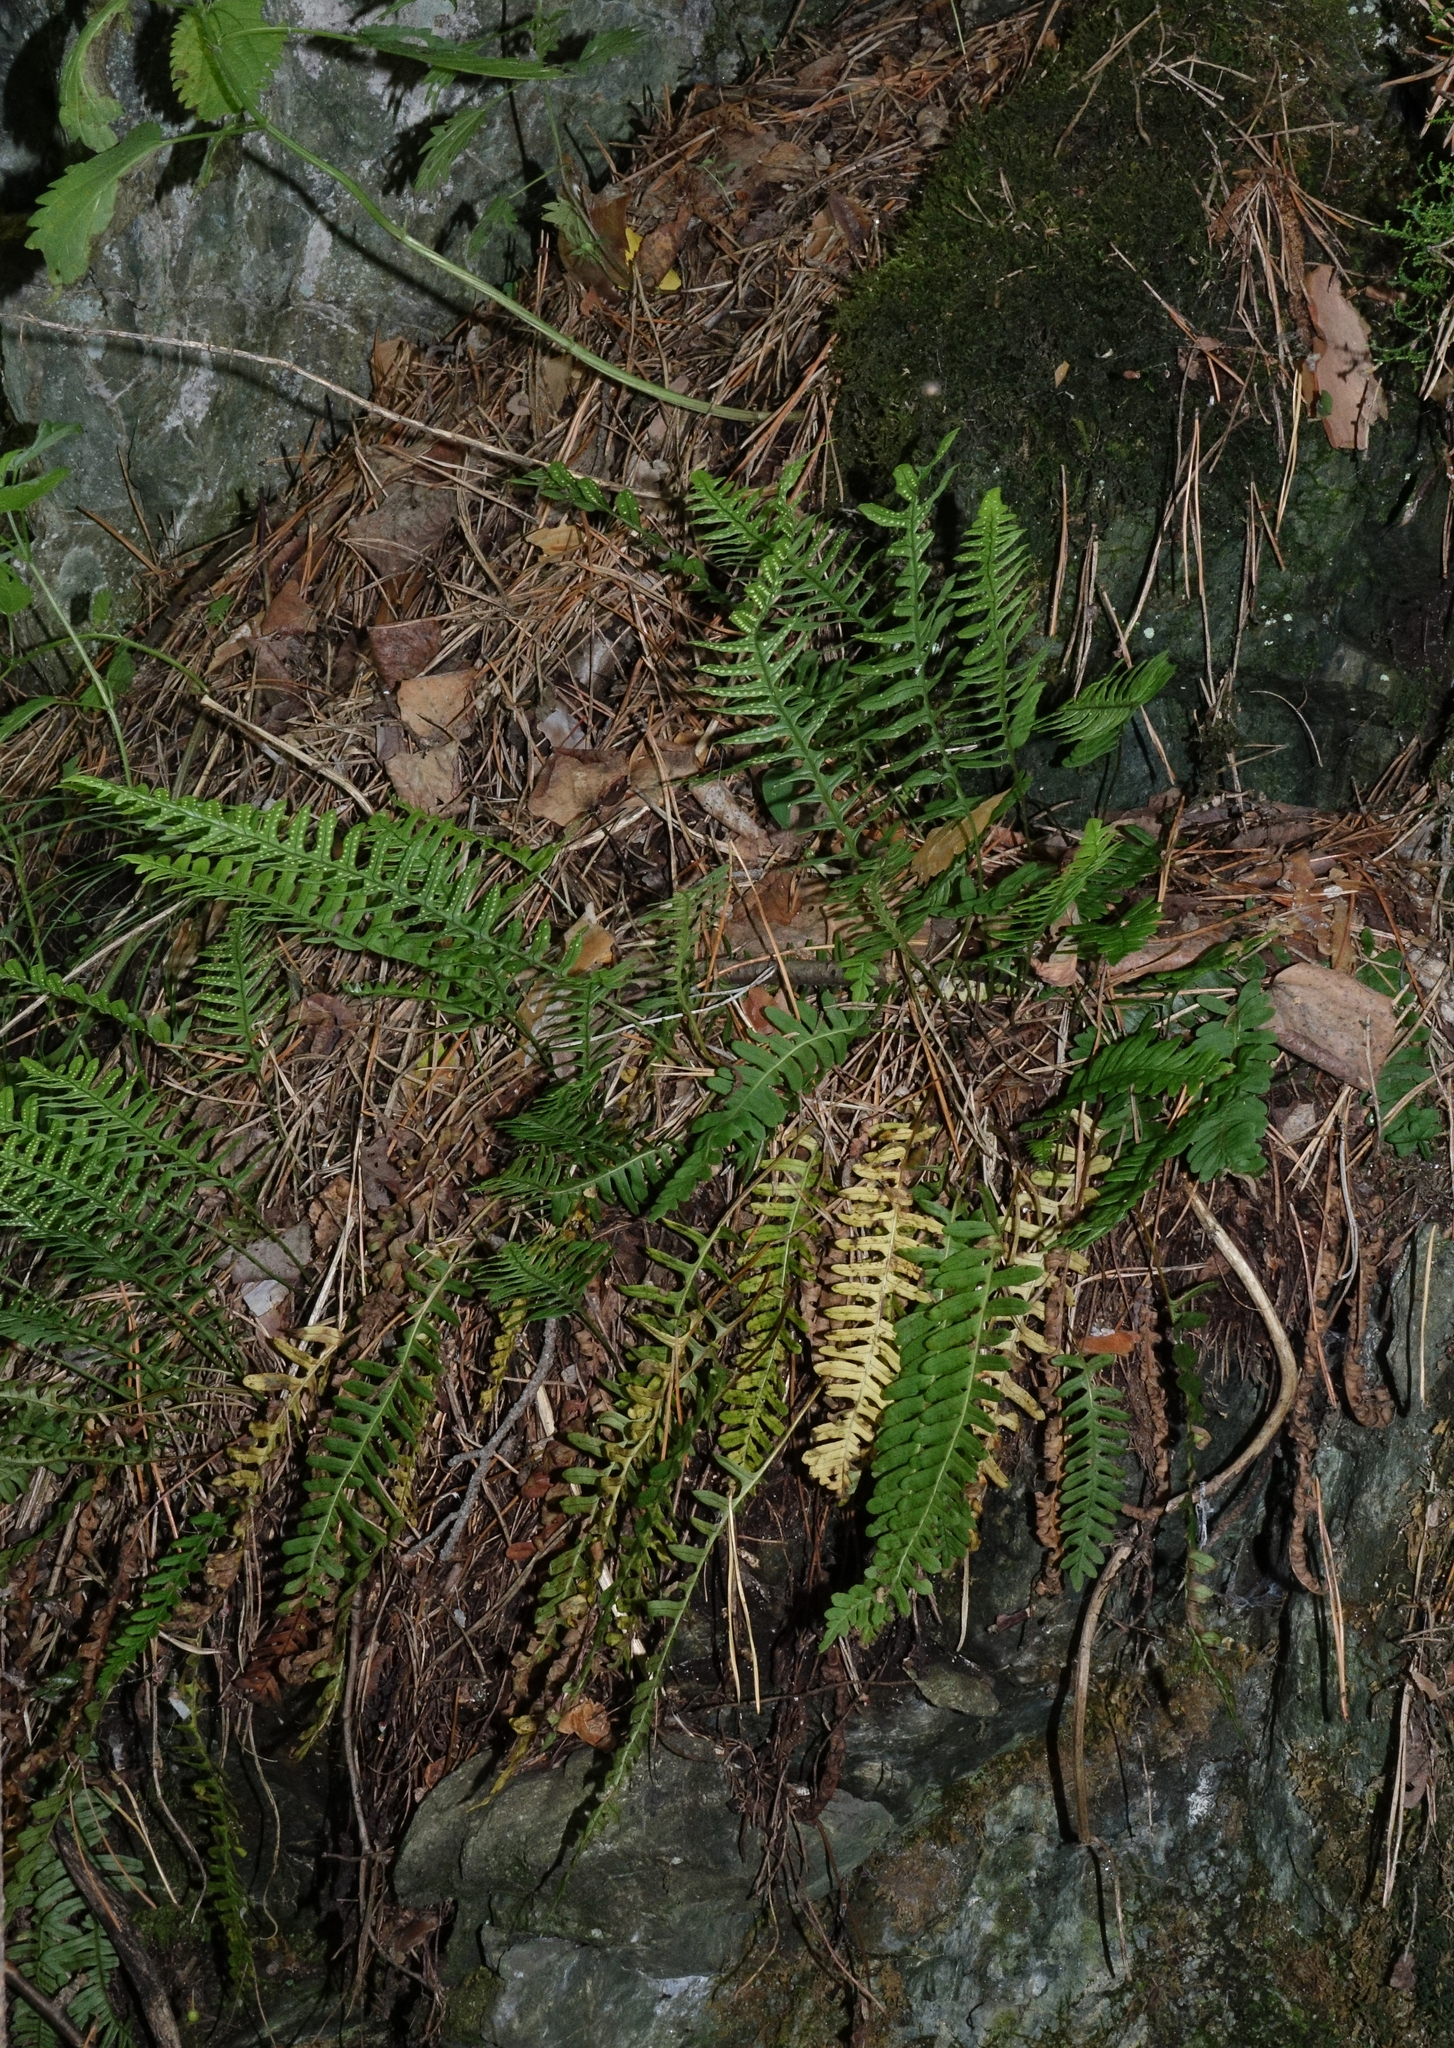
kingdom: Plantae
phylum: Tracheophyta
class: Polypodiopsida
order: Polypodiales
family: Polypodiaceae
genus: Polypodium
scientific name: Polypodium sibiricum
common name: Siberian polypody
